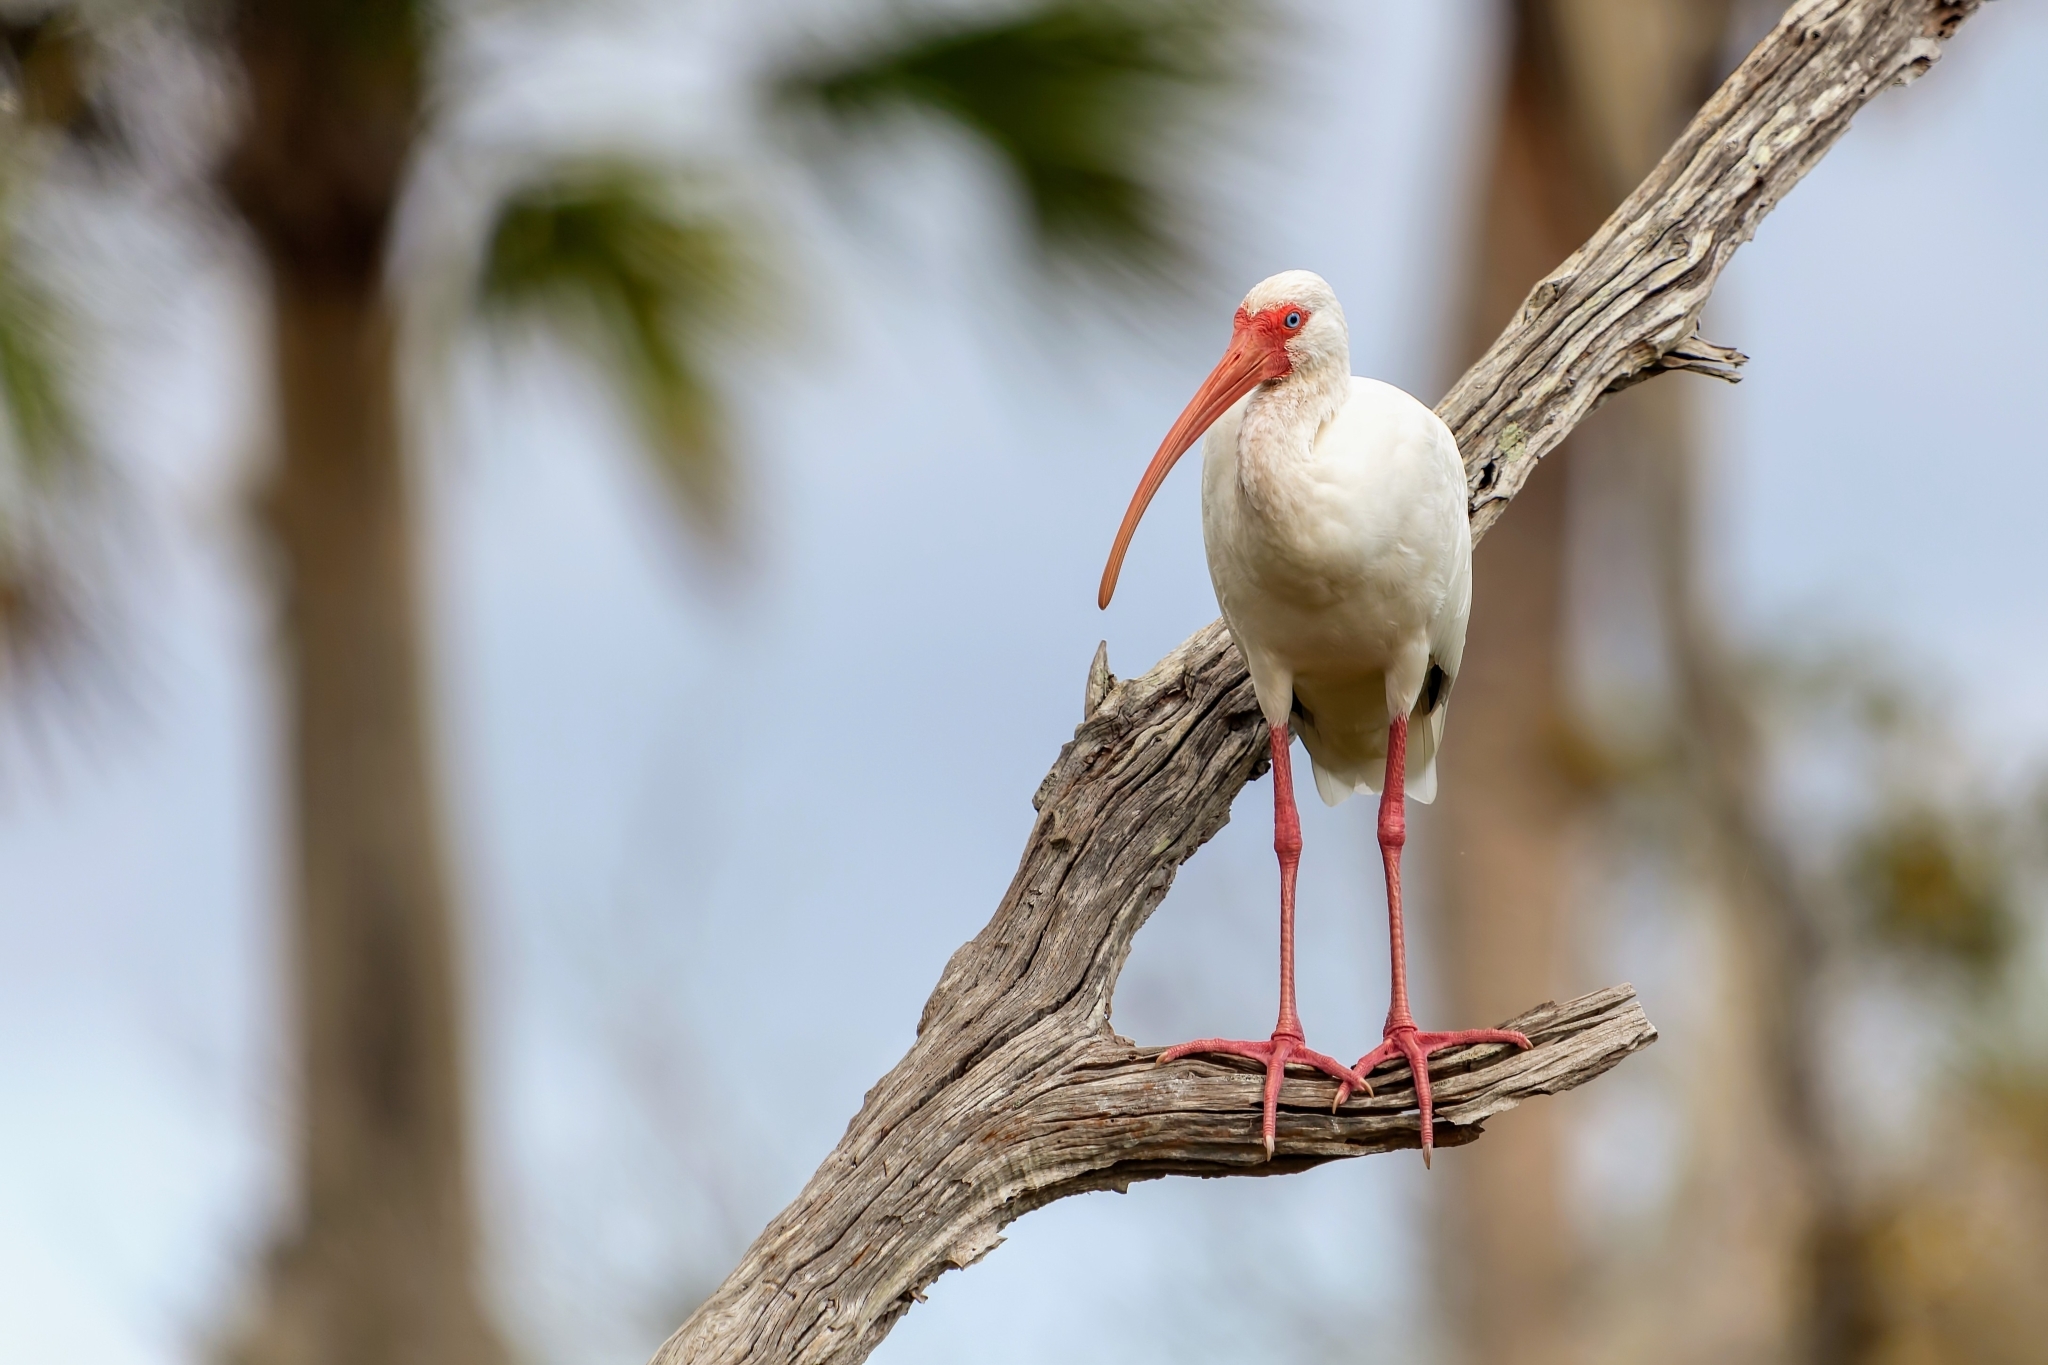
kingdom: Animalia
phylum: Chordata
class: Aves
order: Pelecaniformes
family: Threskiornithidae
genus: Eudocimus
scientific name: Eudocimus albus
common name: White ibis
